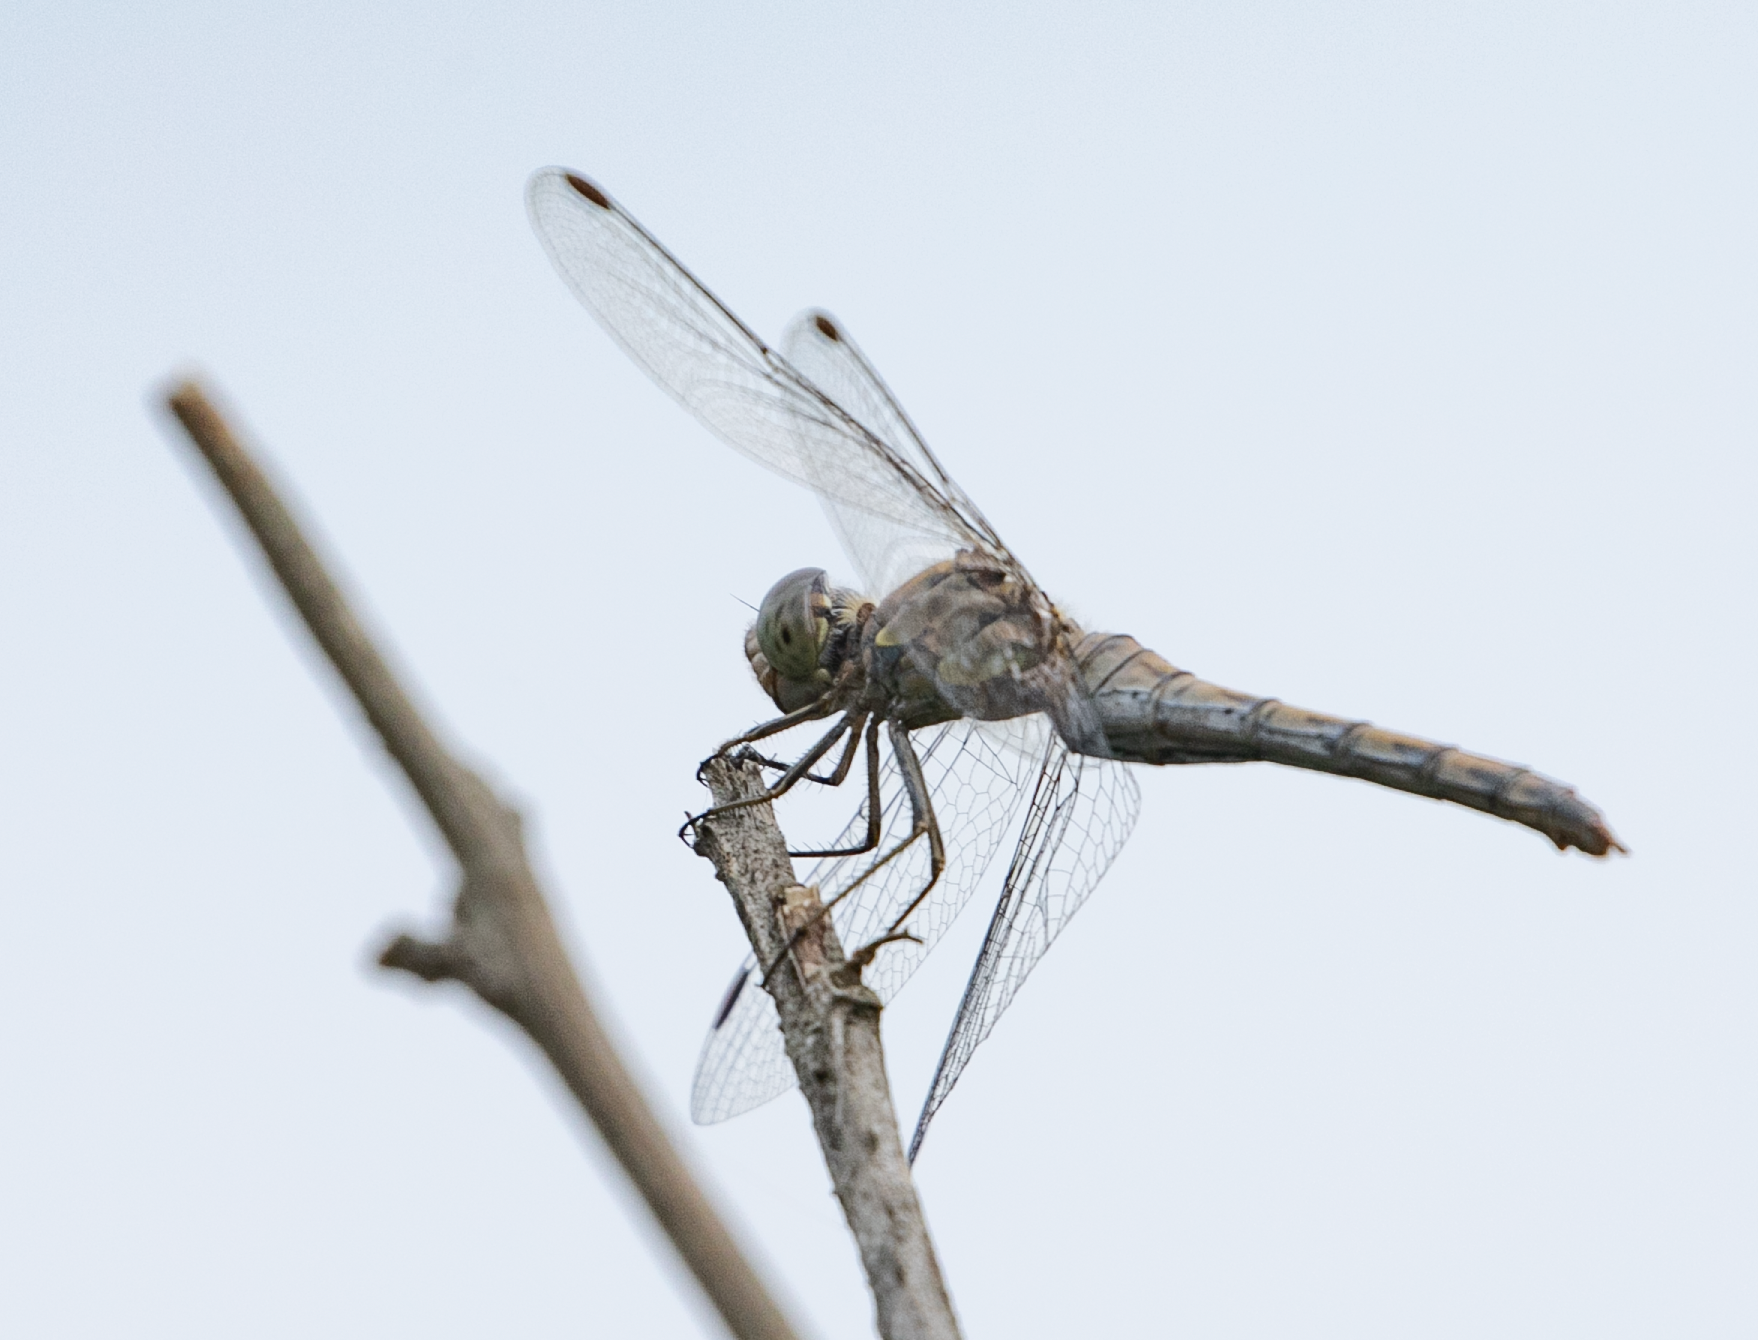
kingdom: Animalia
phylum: Arthropoda
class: Insecta
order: Odonata
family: Libellulidae
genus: Sympetrum
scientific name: Sympetrum striolatum
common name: Common darter
